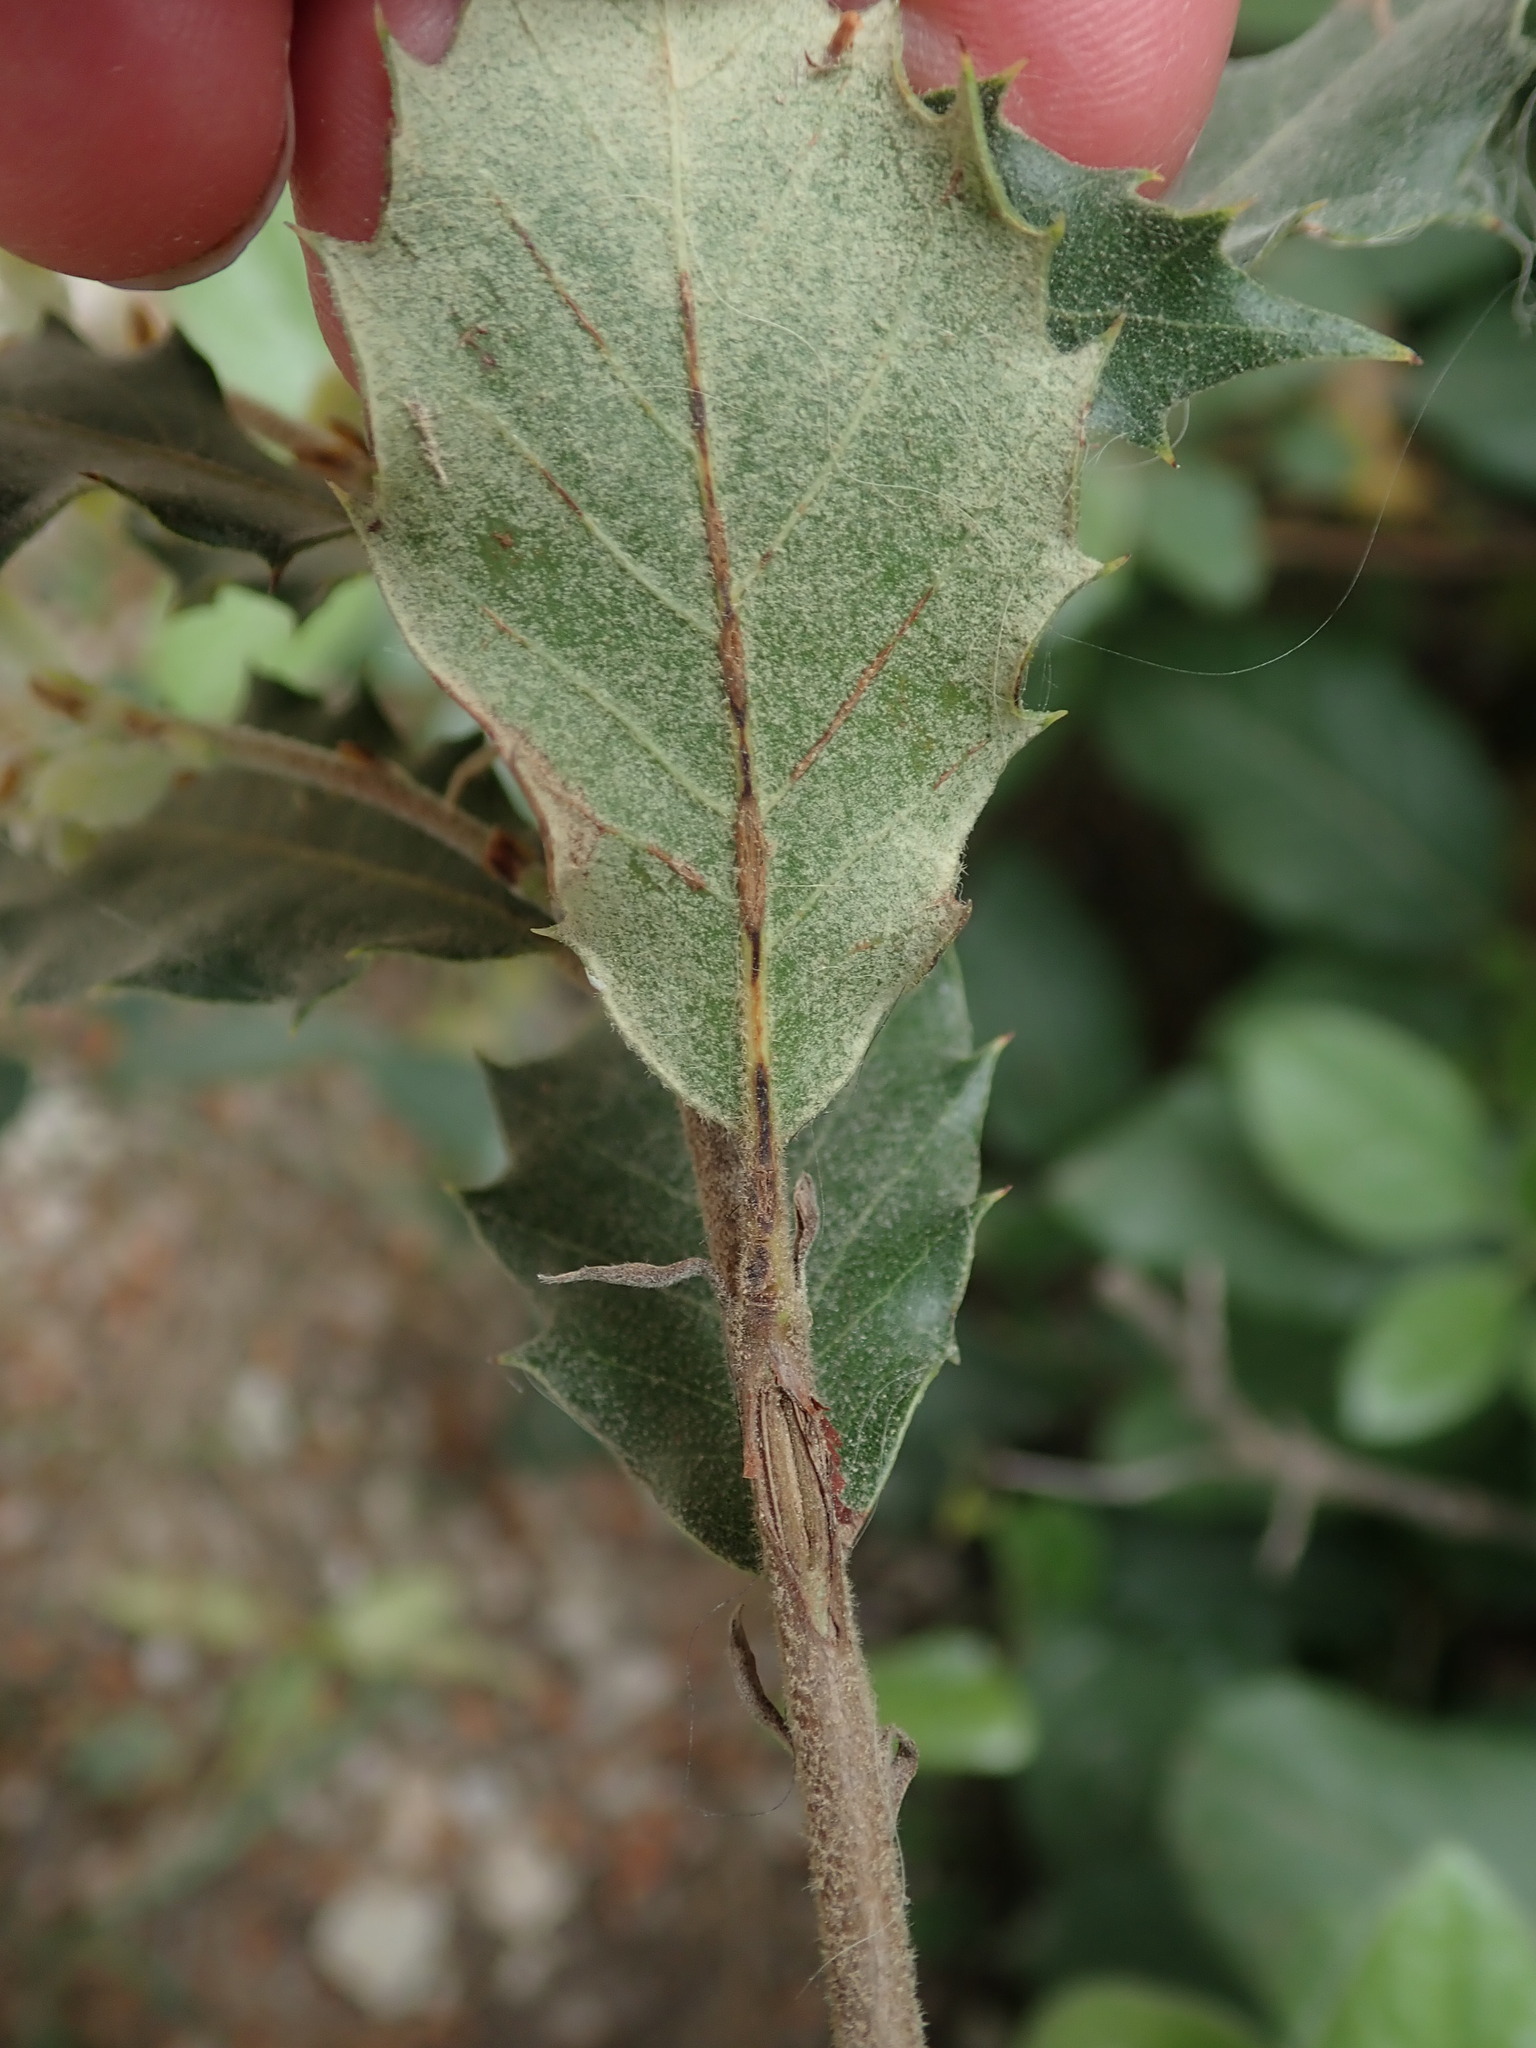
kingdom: Plantae
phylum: Tracheophyta
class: Magnoliopsida
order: Fagales
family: Fagaceae
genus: Quercus
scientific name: Quercus ilex
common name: Evergreen oak
